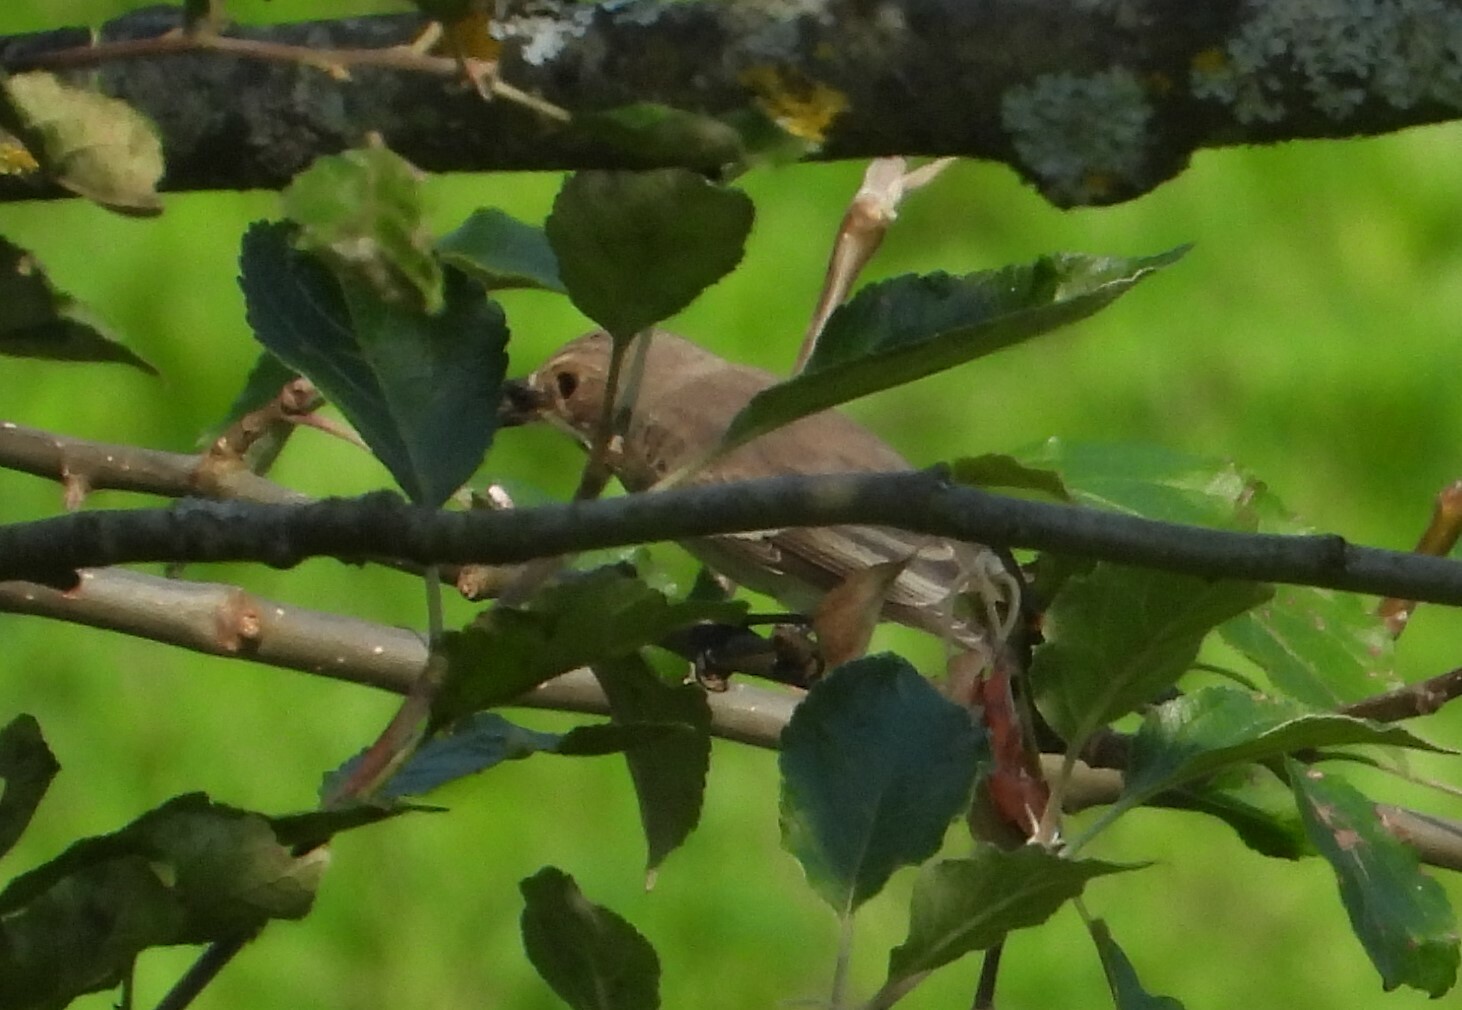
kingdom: Animalia
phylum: Chordata
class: Aves
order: Passeriformes
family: Muscicapidae
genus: Muscicapa
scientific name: Muscicapa striata
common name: Spotted flycatcher
